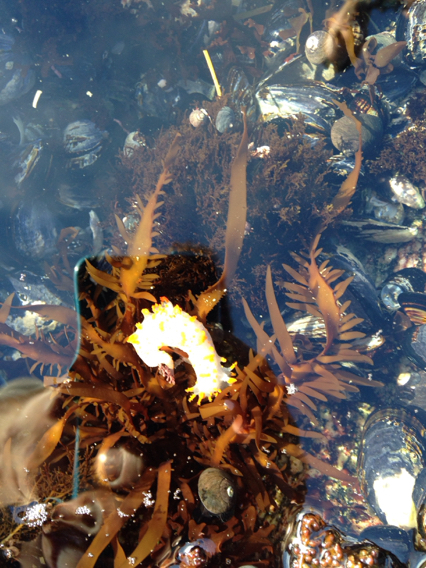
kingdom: Animalia
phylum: Mollusca
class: Gastropoda
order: Nudibranchia
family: Polyceridae
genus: Triopha
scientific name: Triopha catalinae
